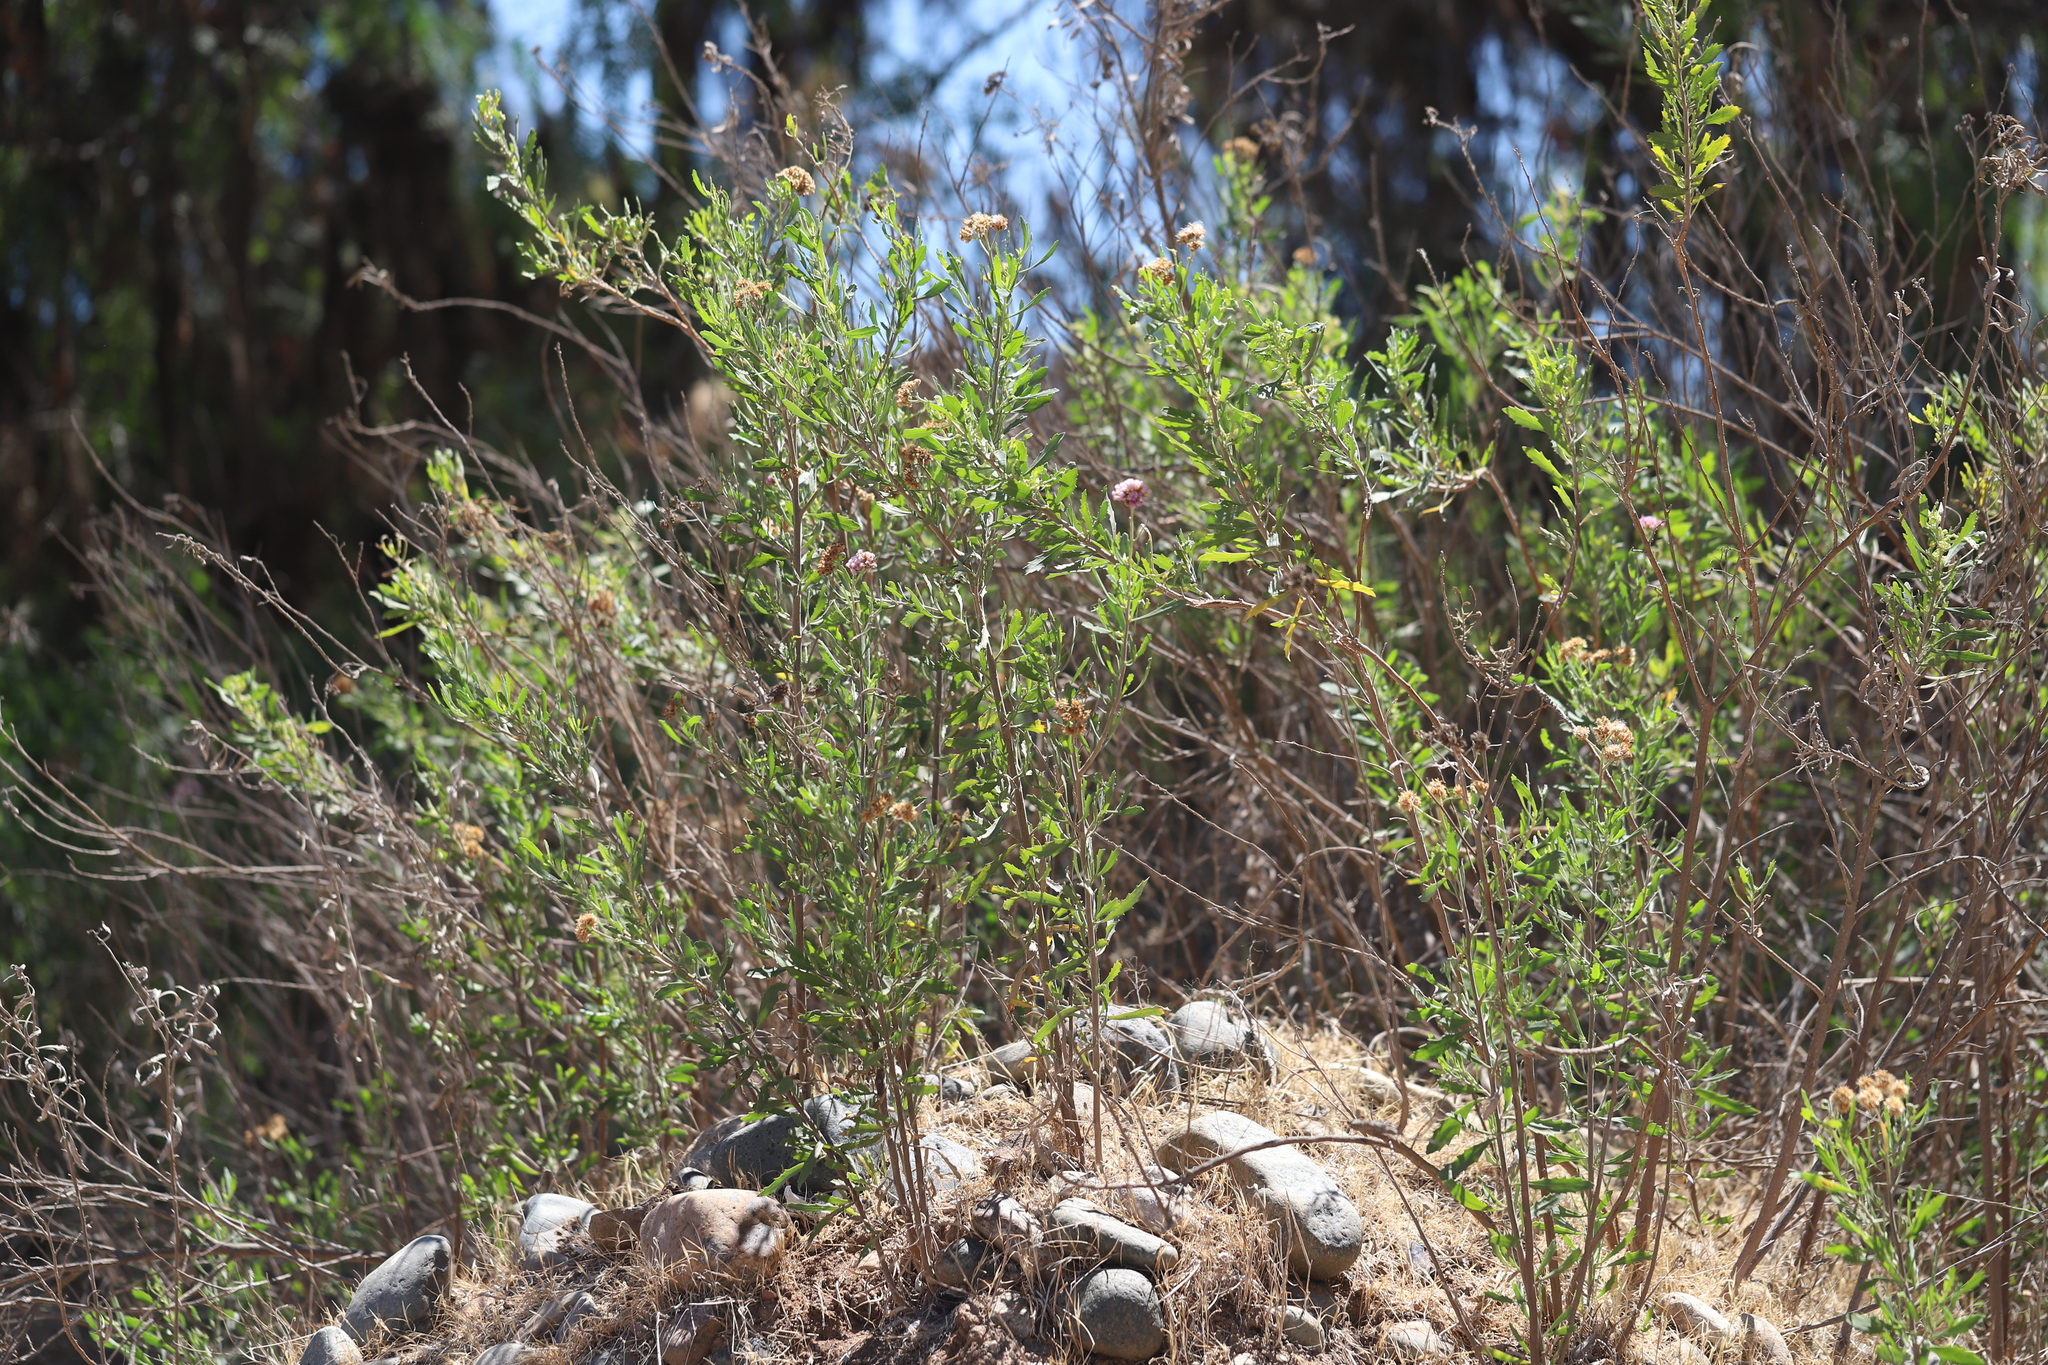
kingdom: Plantae
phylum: Tracheophyta
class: Magnoliopsida
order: Asterales
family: Asteraceae
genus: Tessaria
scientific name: Tessaria absinthioides
